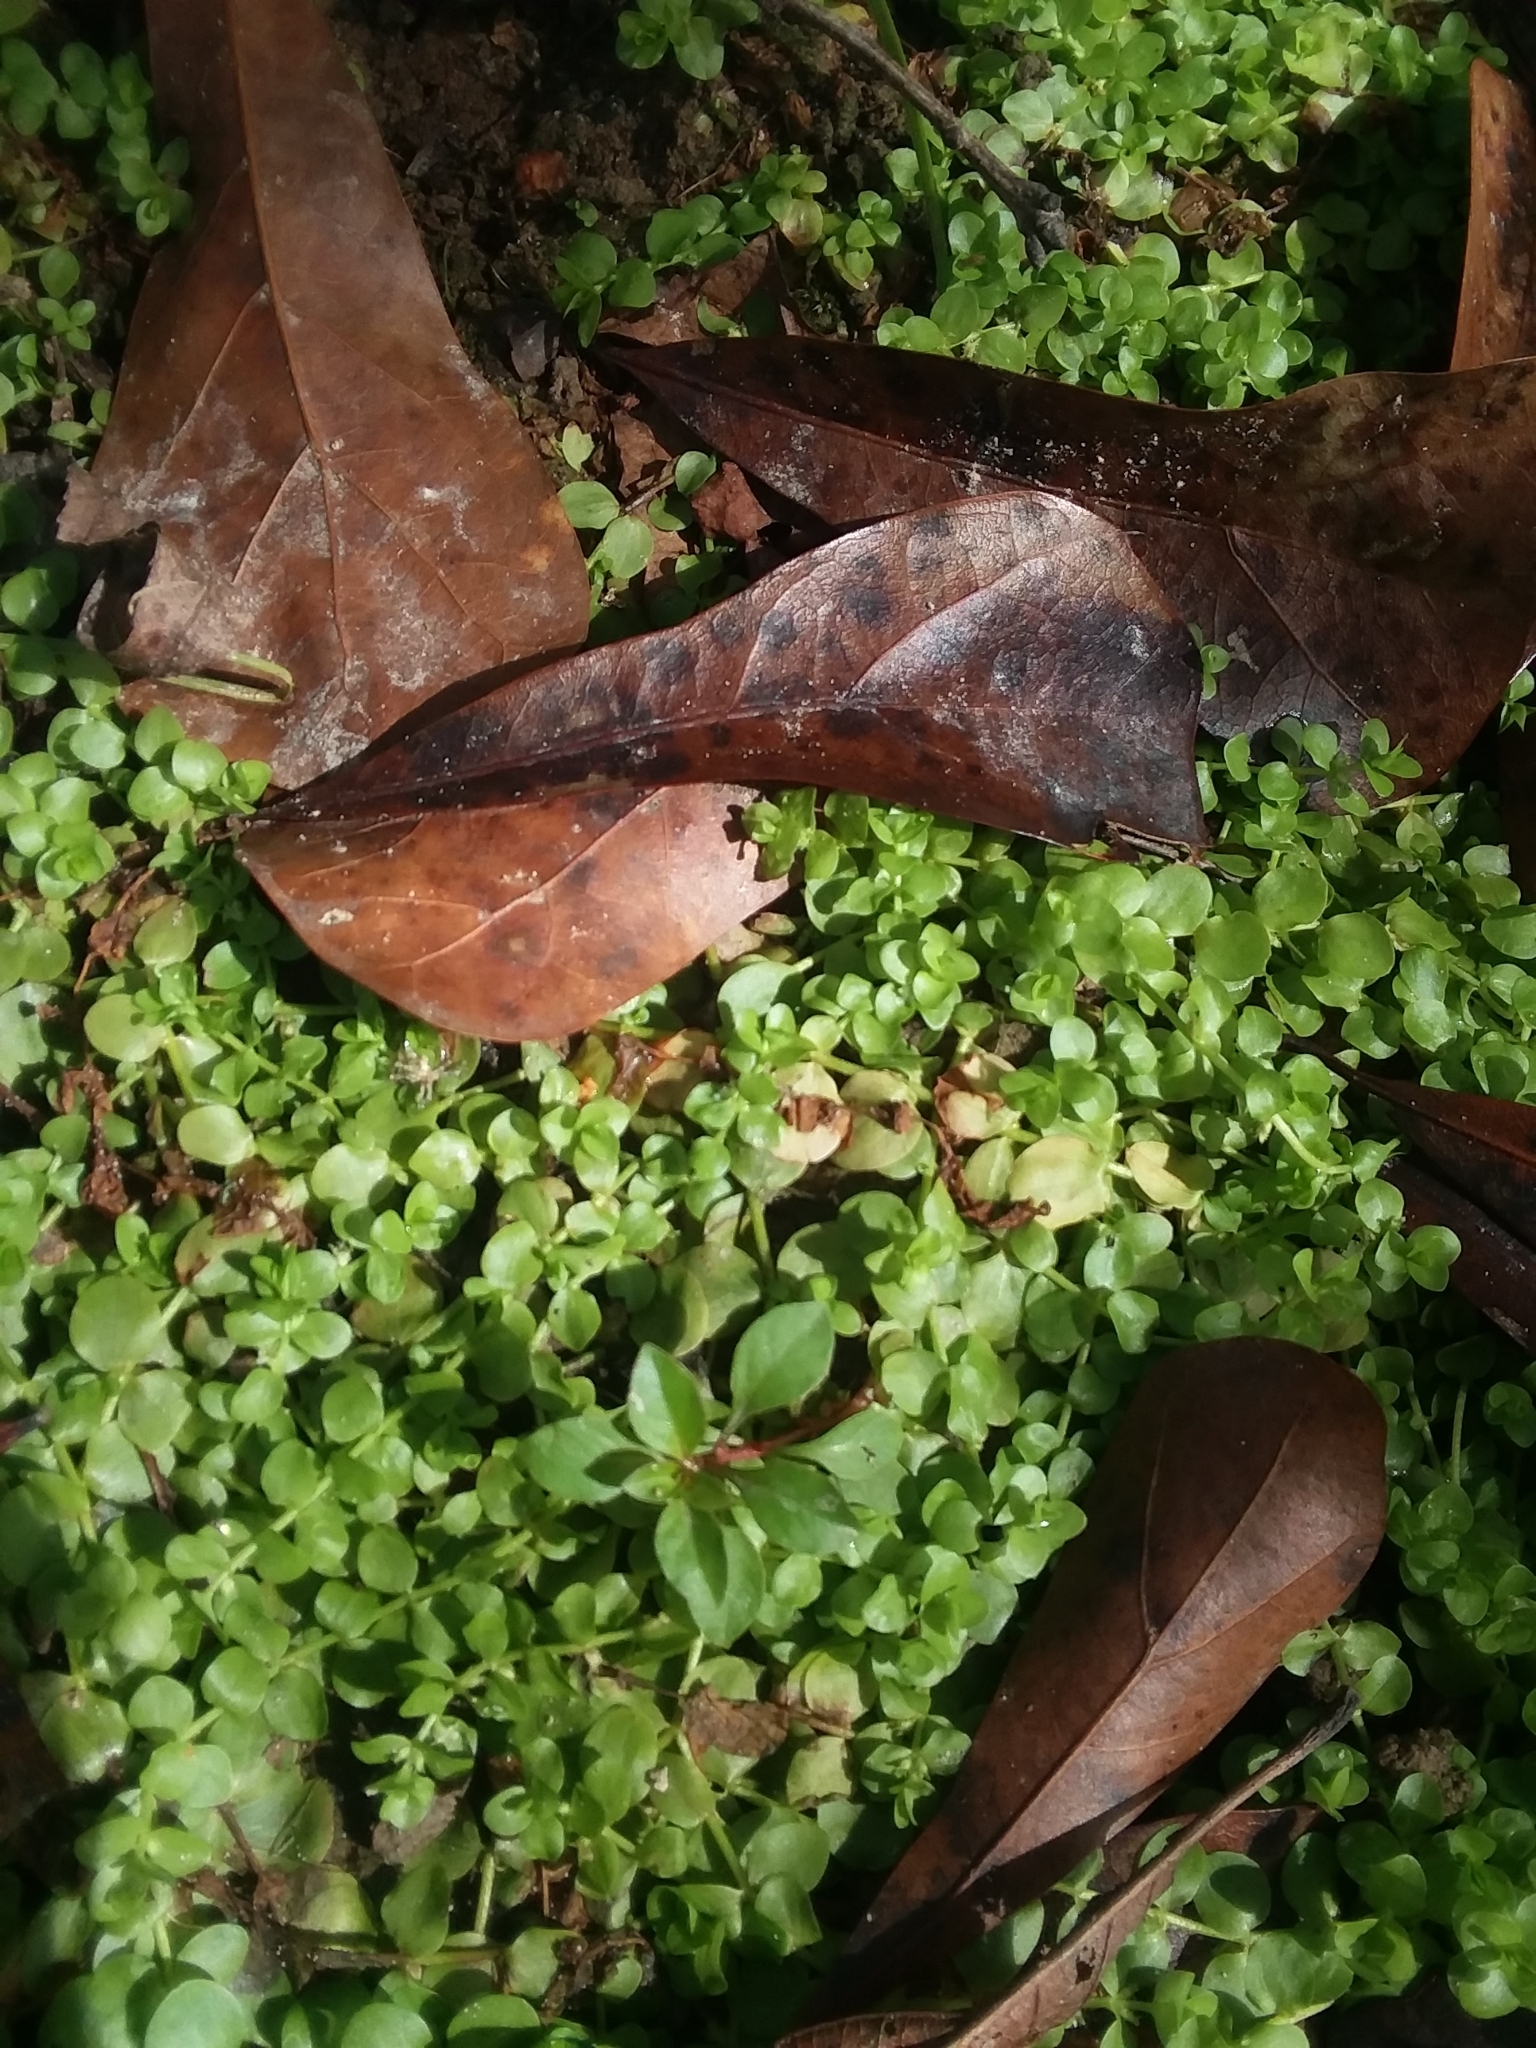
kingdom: Plantae
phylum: Tracheophyta
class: Magnoliopsida
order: Lamiales
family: Linderniaceae
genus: Micranthemum
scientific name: Micranthemum umbrosum
